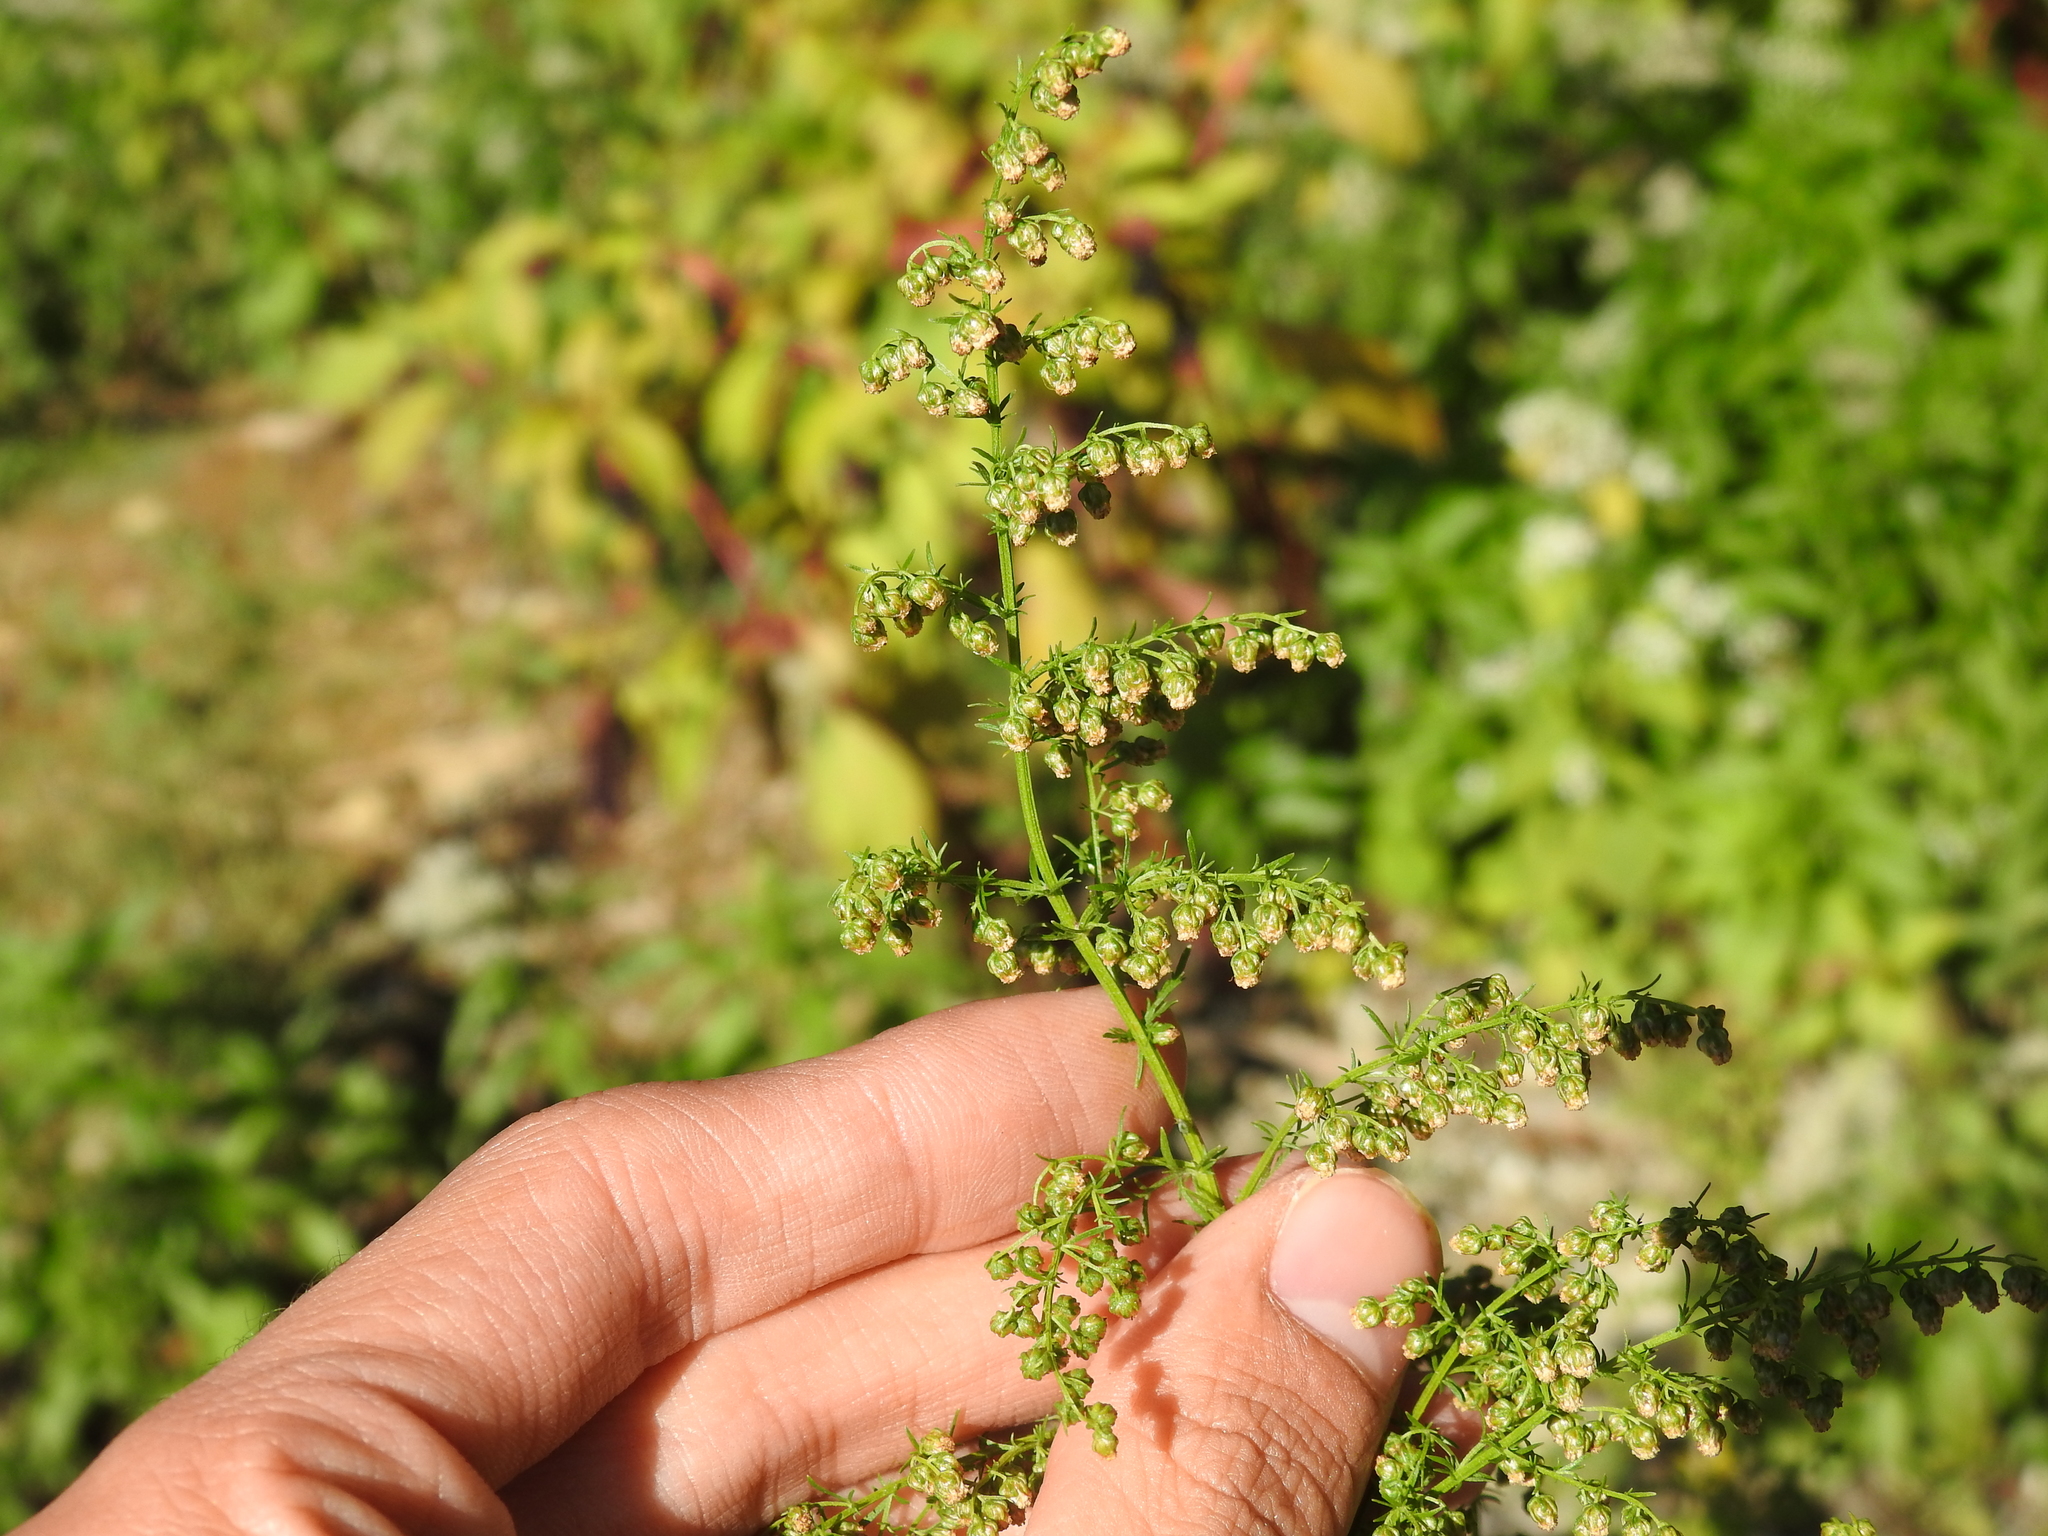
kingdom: Plantae
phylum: Tracheophyta
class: Magnoliopsida
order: Asterales
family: Asteraceae
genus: Artemisia
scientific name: Artemisia annua
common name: Sweet sagewort
